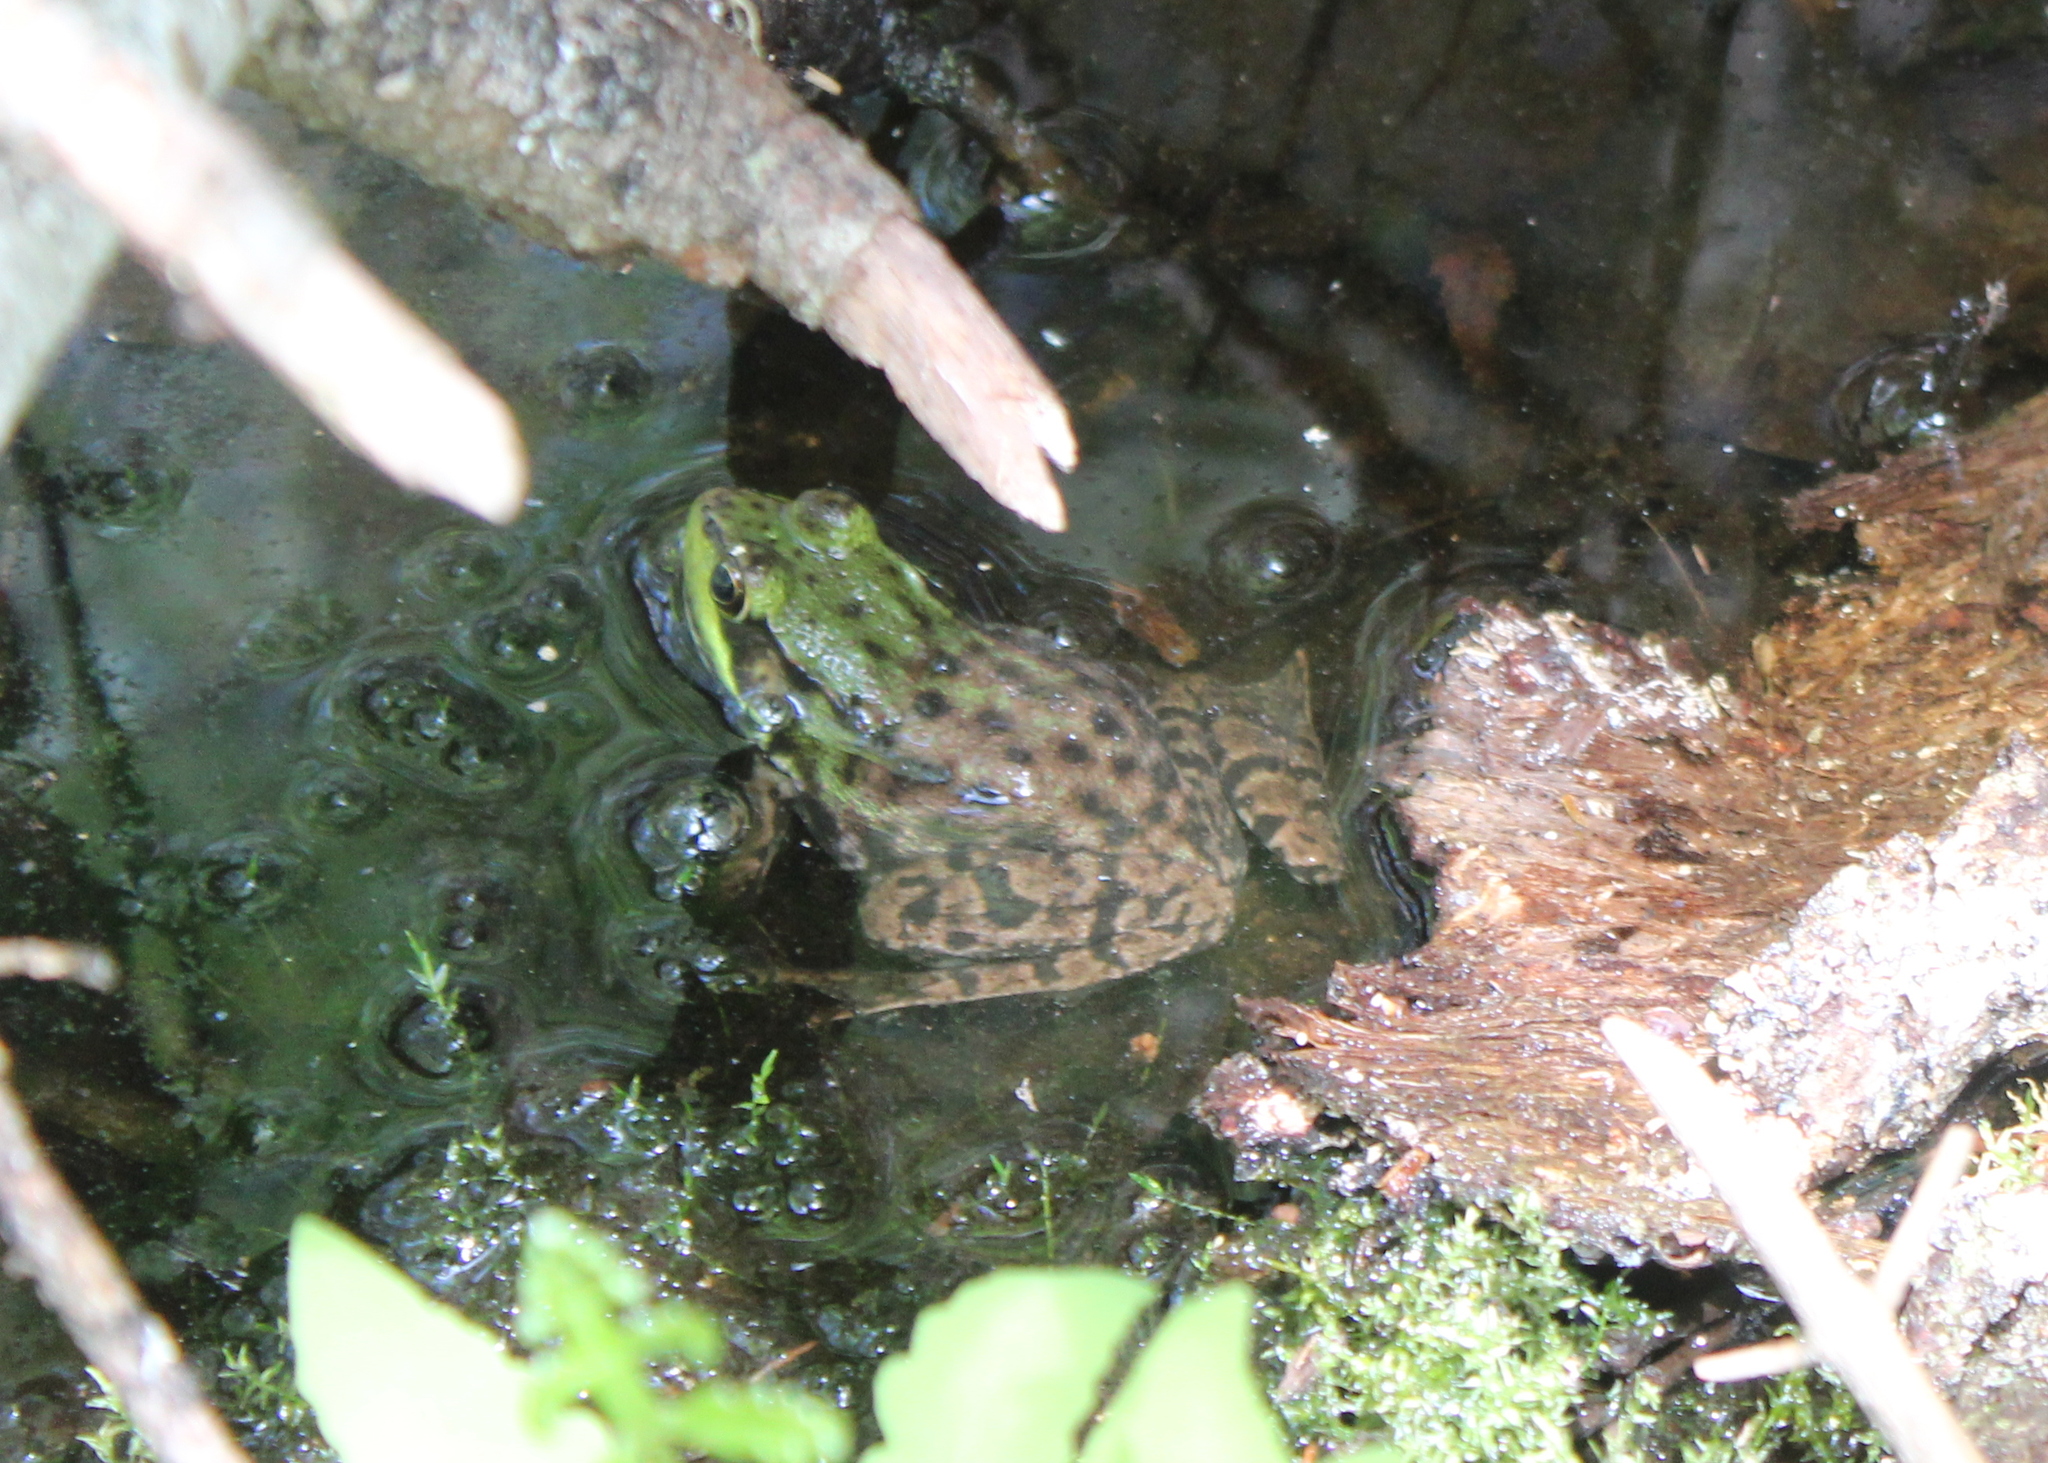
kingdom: Animalia
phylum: Chordata
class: Amphibia
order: Anura
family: Ranidae
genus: Lithobates
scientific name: Lithobates clamitans
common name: Green frog
